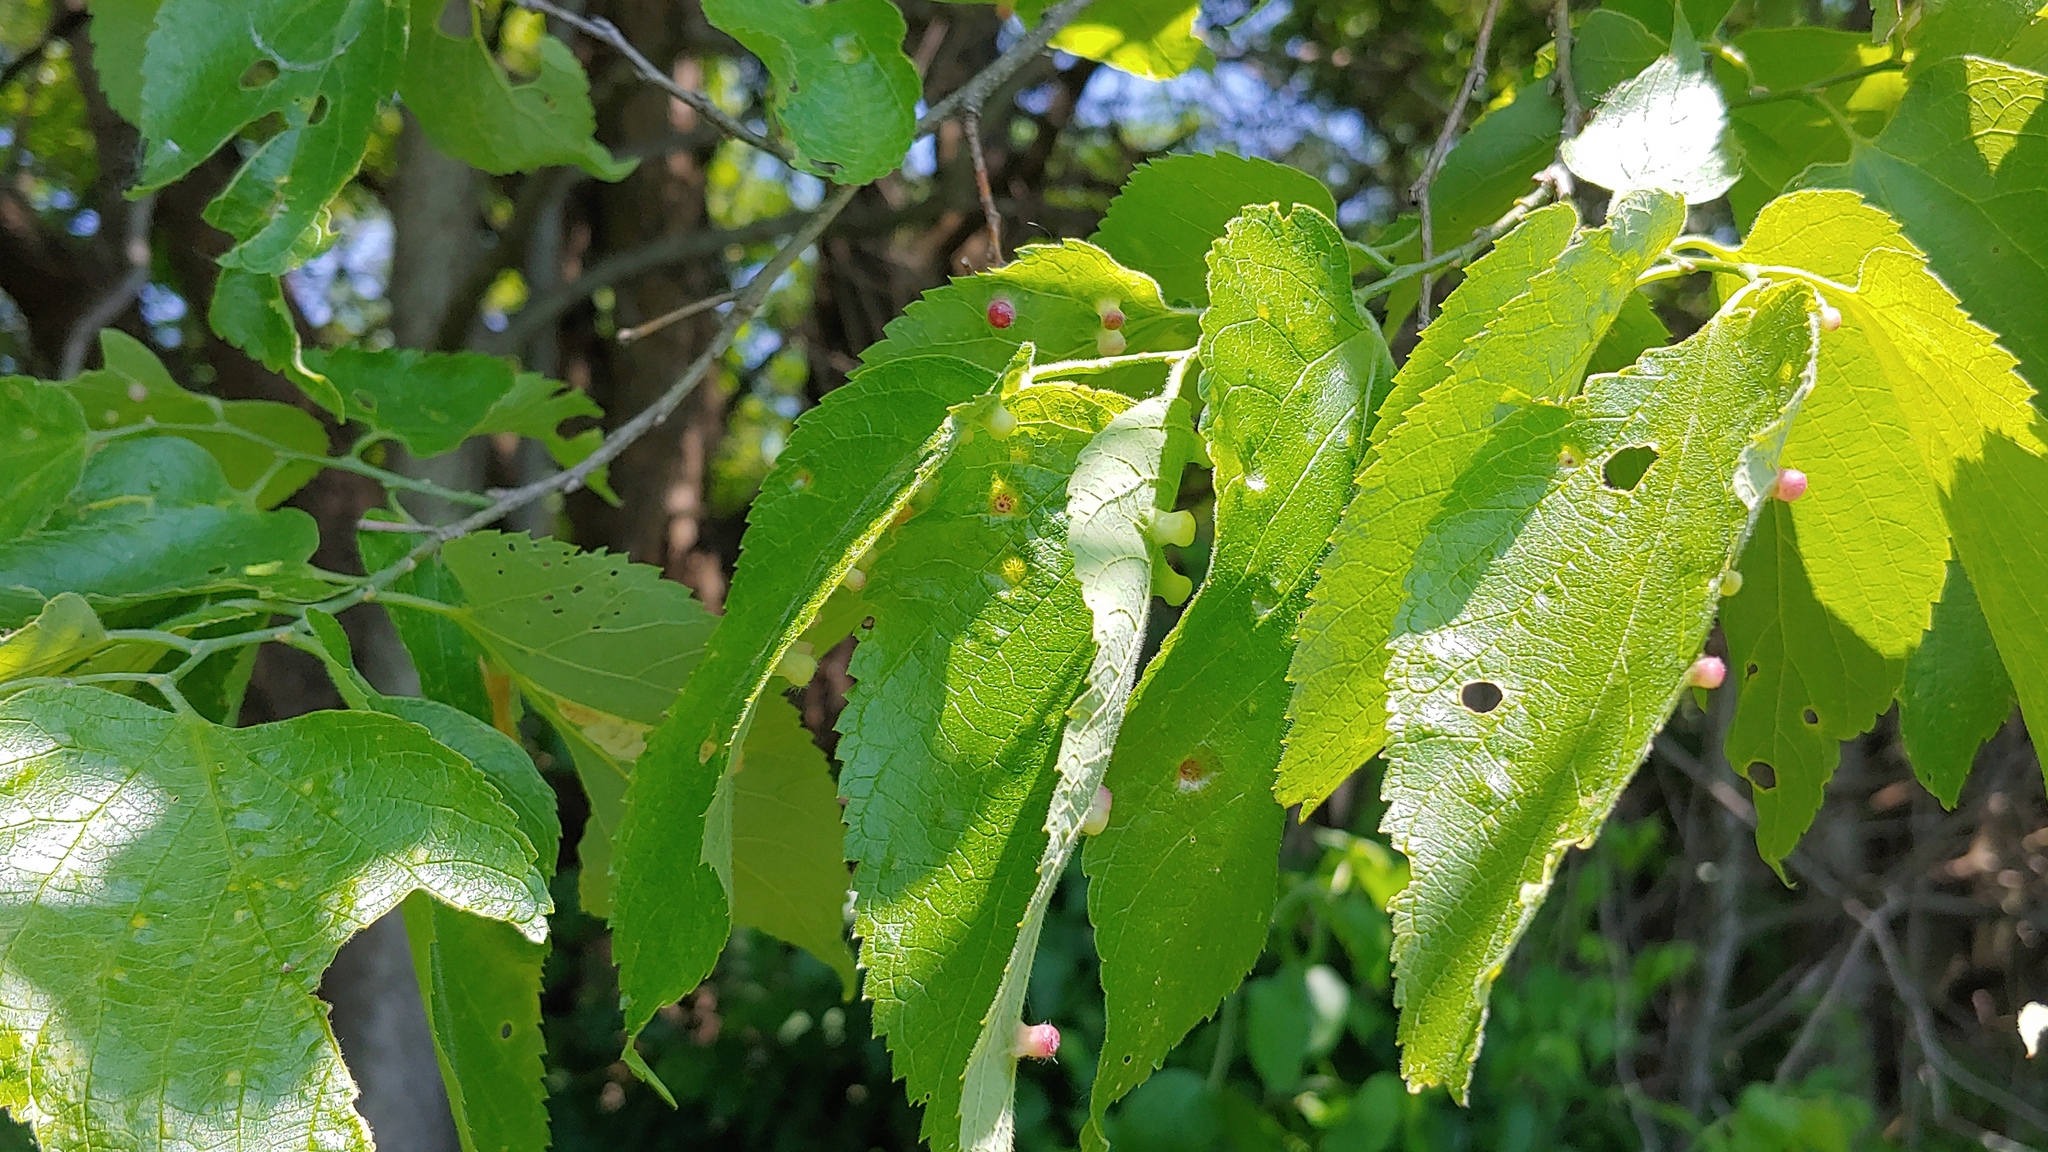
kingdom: Animalia
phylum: Arthropoda
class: Insecta
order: Hemiptera
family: Aphalaridae
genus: Pachypsylla
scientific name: Pachypsylla celtidismamma
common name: Hackberry nipplegall psyllid
